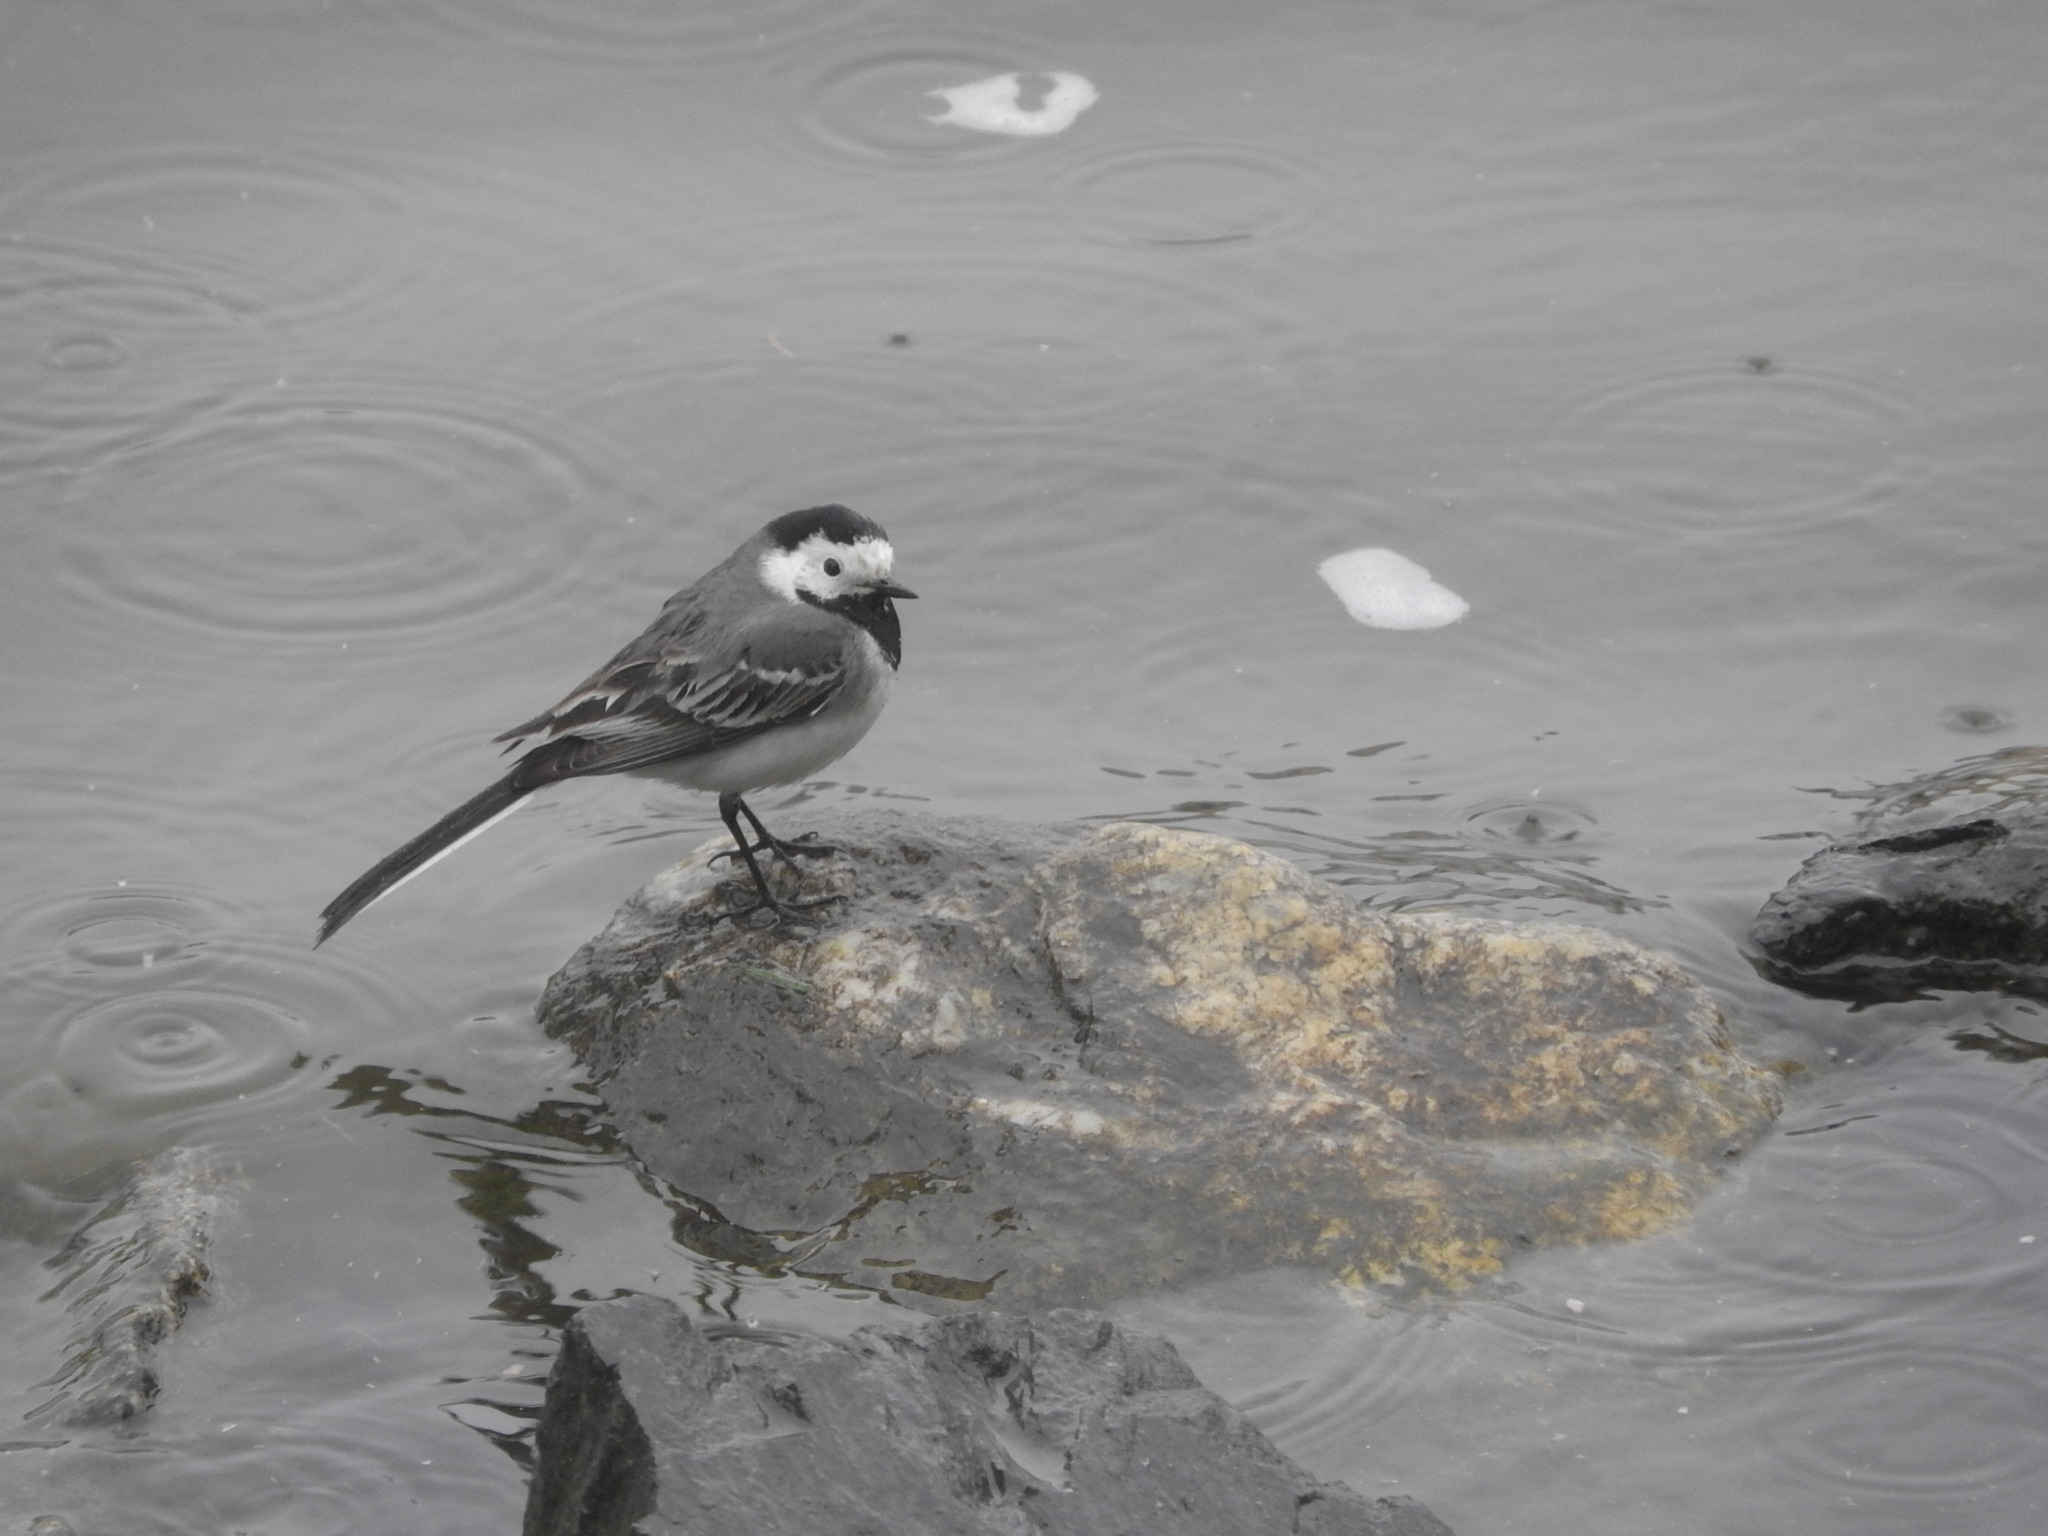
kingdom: Animalia
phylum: Chordata
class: Aves
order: Passeriformes
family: Motacillidae
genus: Motacilla
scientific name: Motacilla alba
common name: White wagtail
